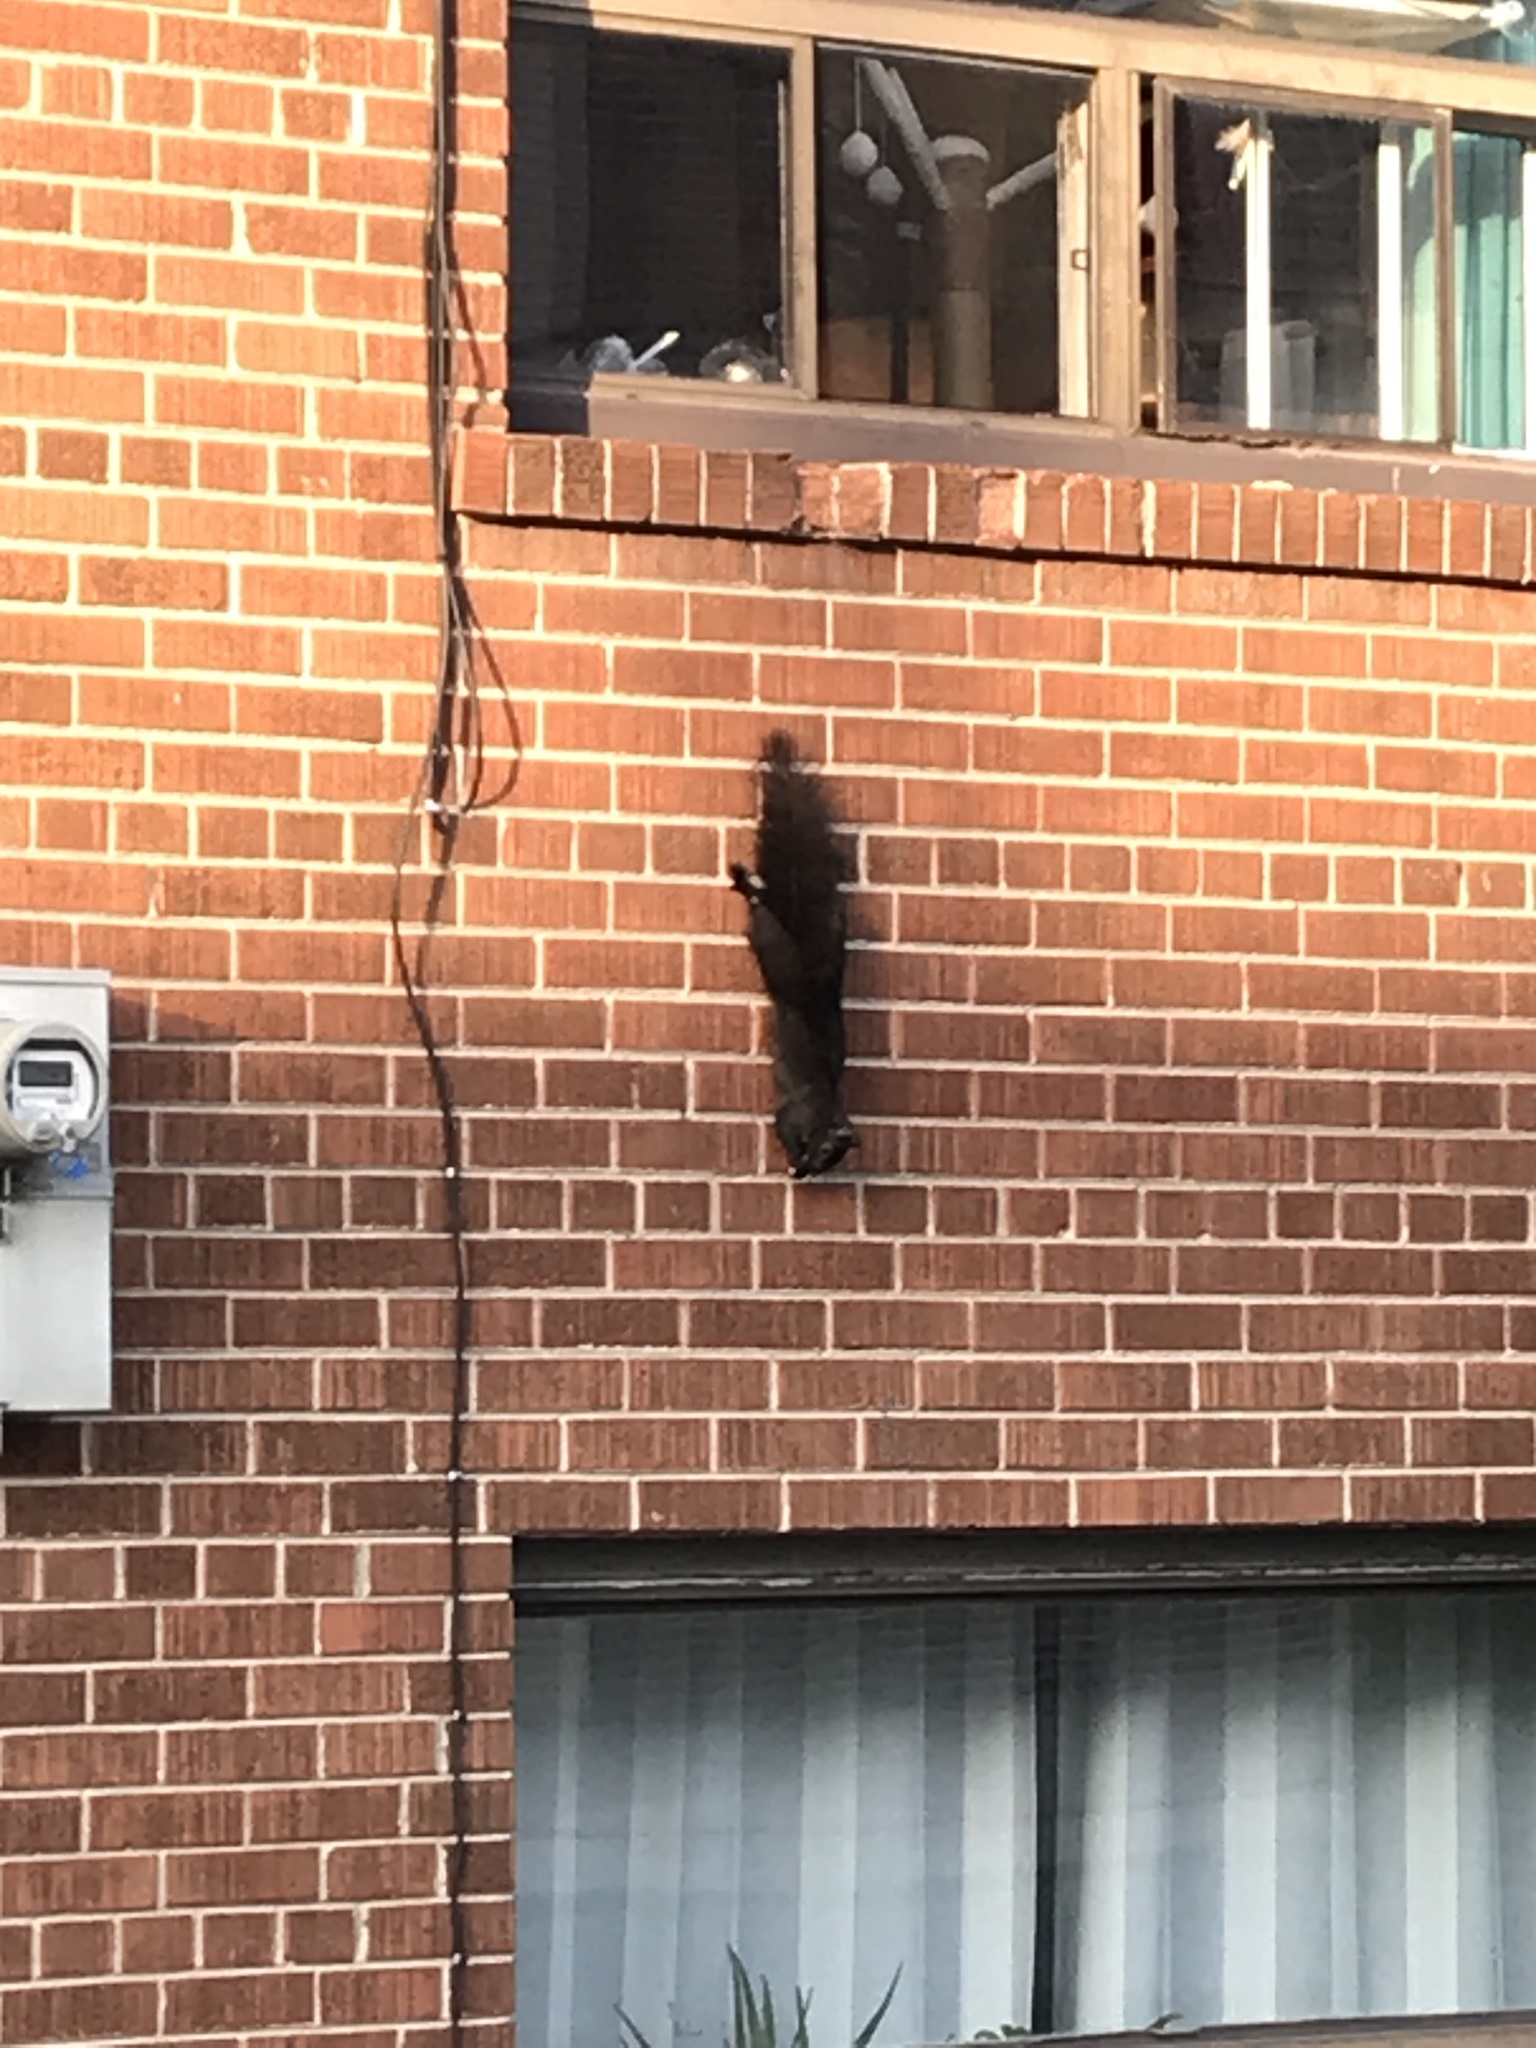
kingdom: Animalia
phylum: Chordata
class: Mammalia
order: Rodentia
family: Sciuridae
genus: Sciurus
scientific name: Sciurus carolinensis
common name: Eastern gray squirrel
